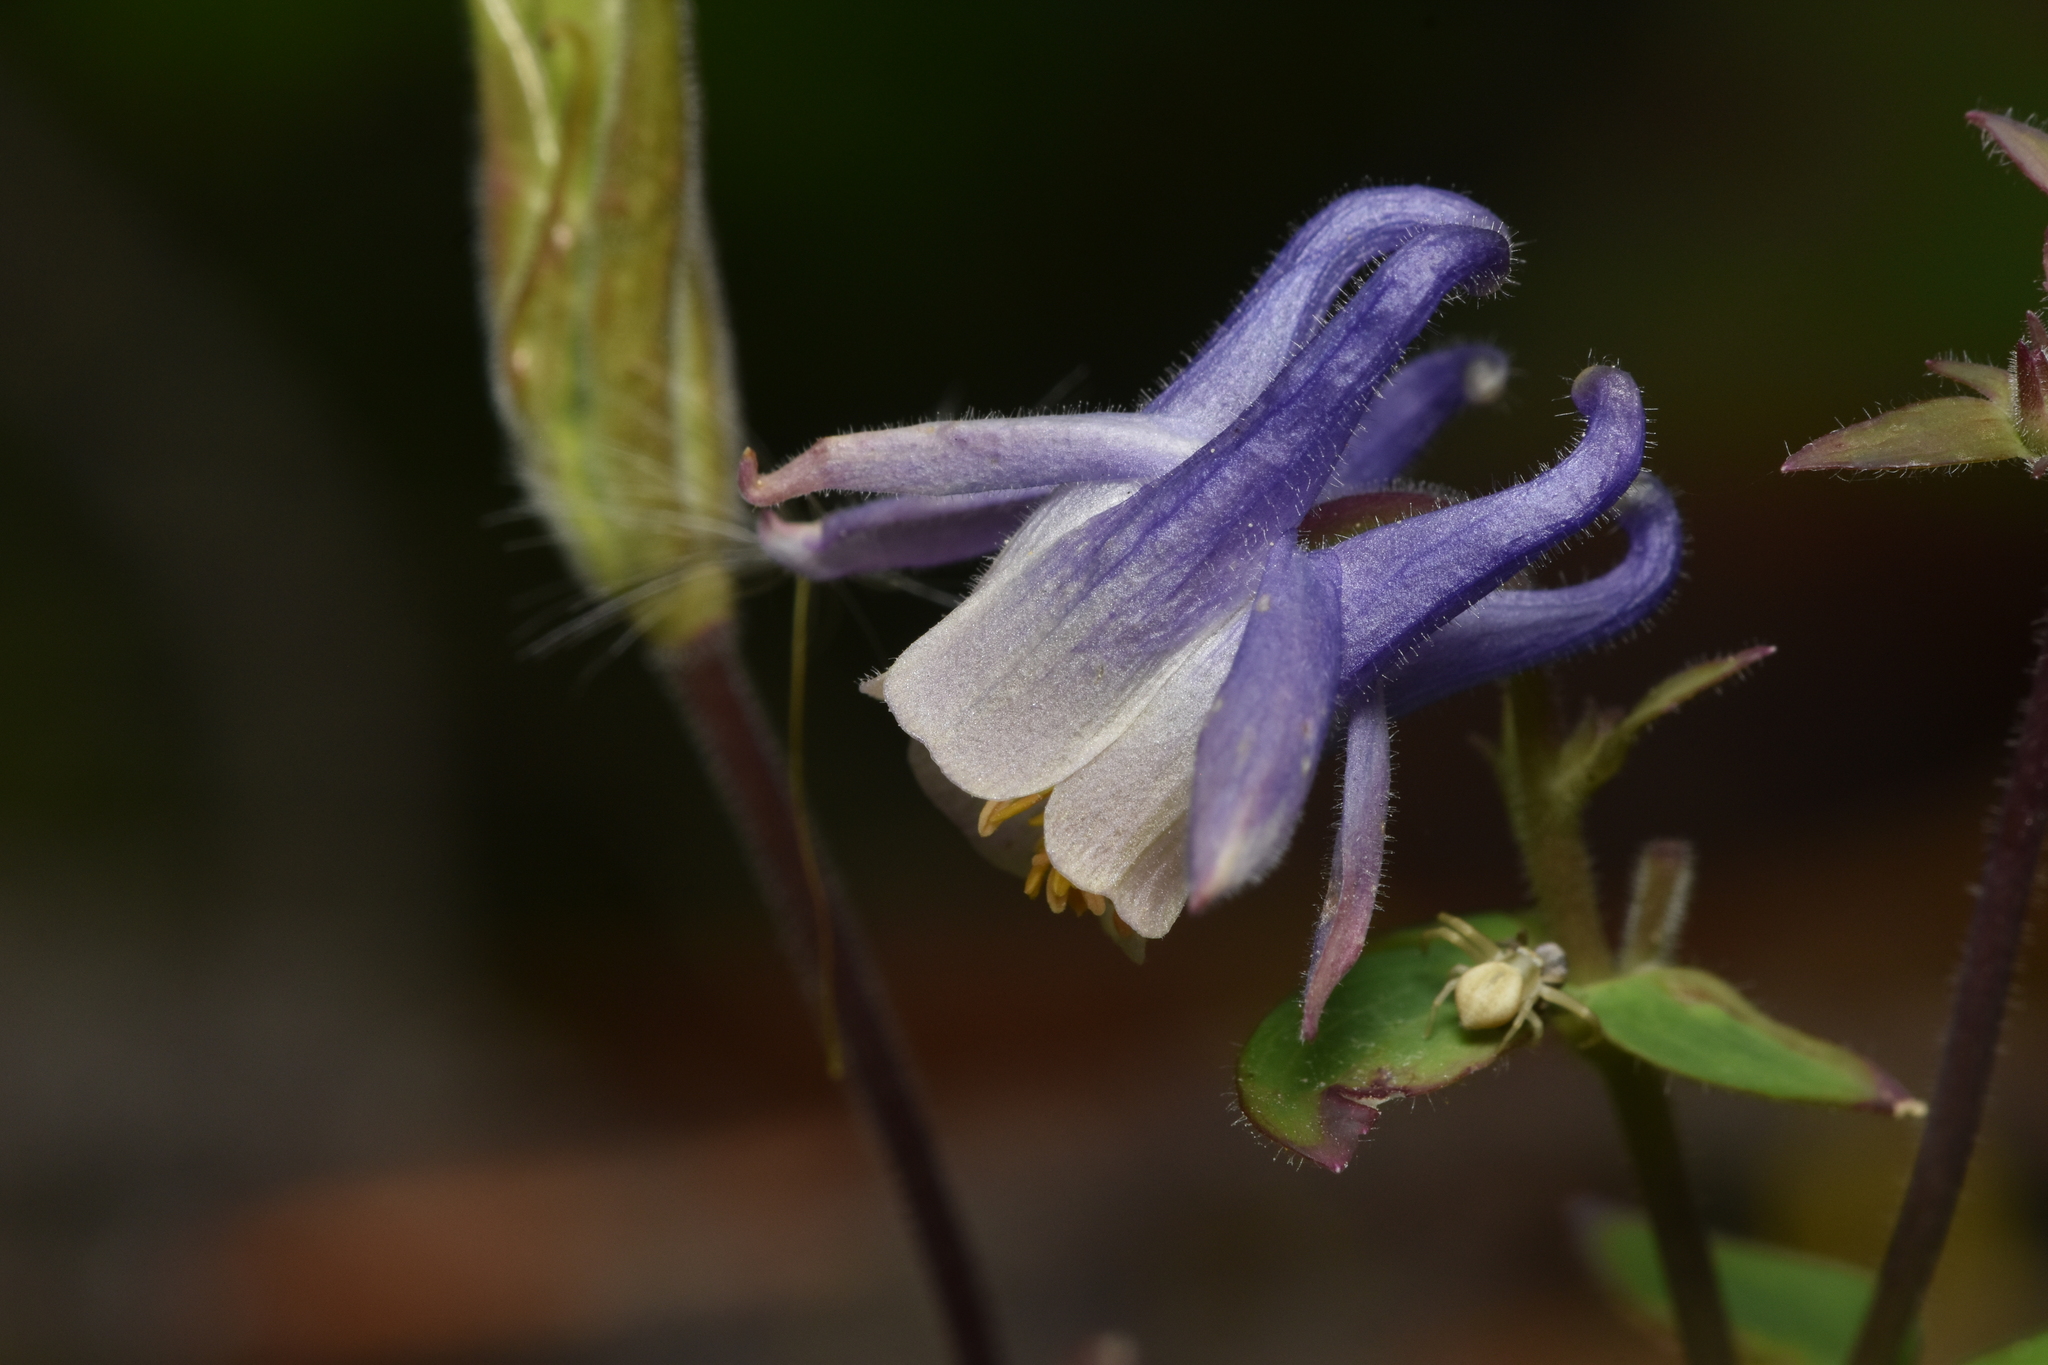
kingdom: Plantae
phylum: Tracheophyta
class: Magnoliopsida
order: Ranunculales
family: Ranunculaceae
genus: Aquilegia
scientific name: Aquilegia brevistyla
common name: Yukon columbine
